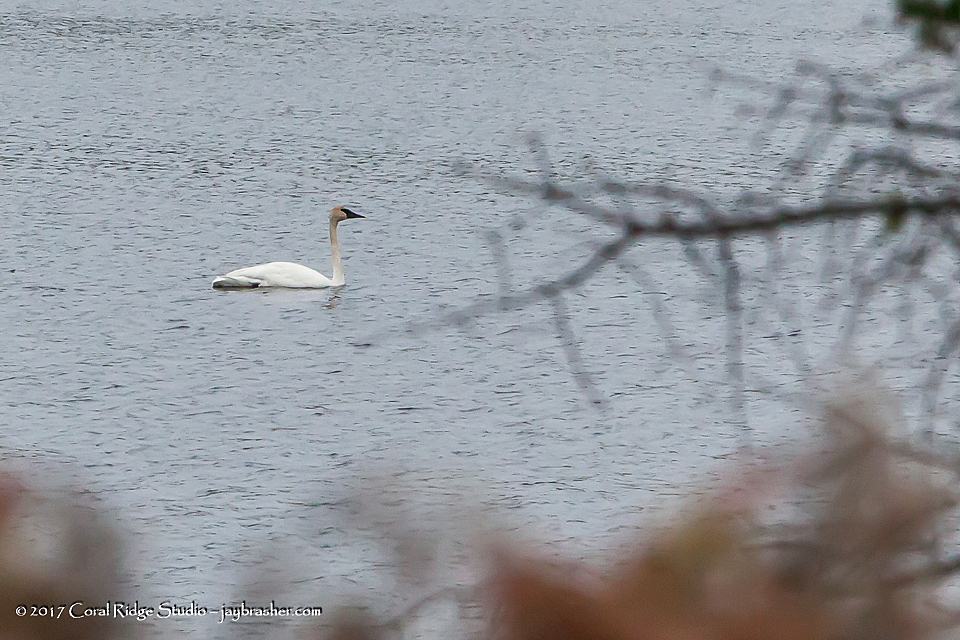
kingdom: Animalia
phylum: Chordata
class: Aves
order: Anseriformes
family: Anatidae
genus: Cygnus
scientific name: Cygnus buccinator
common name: Trumpeter swan
